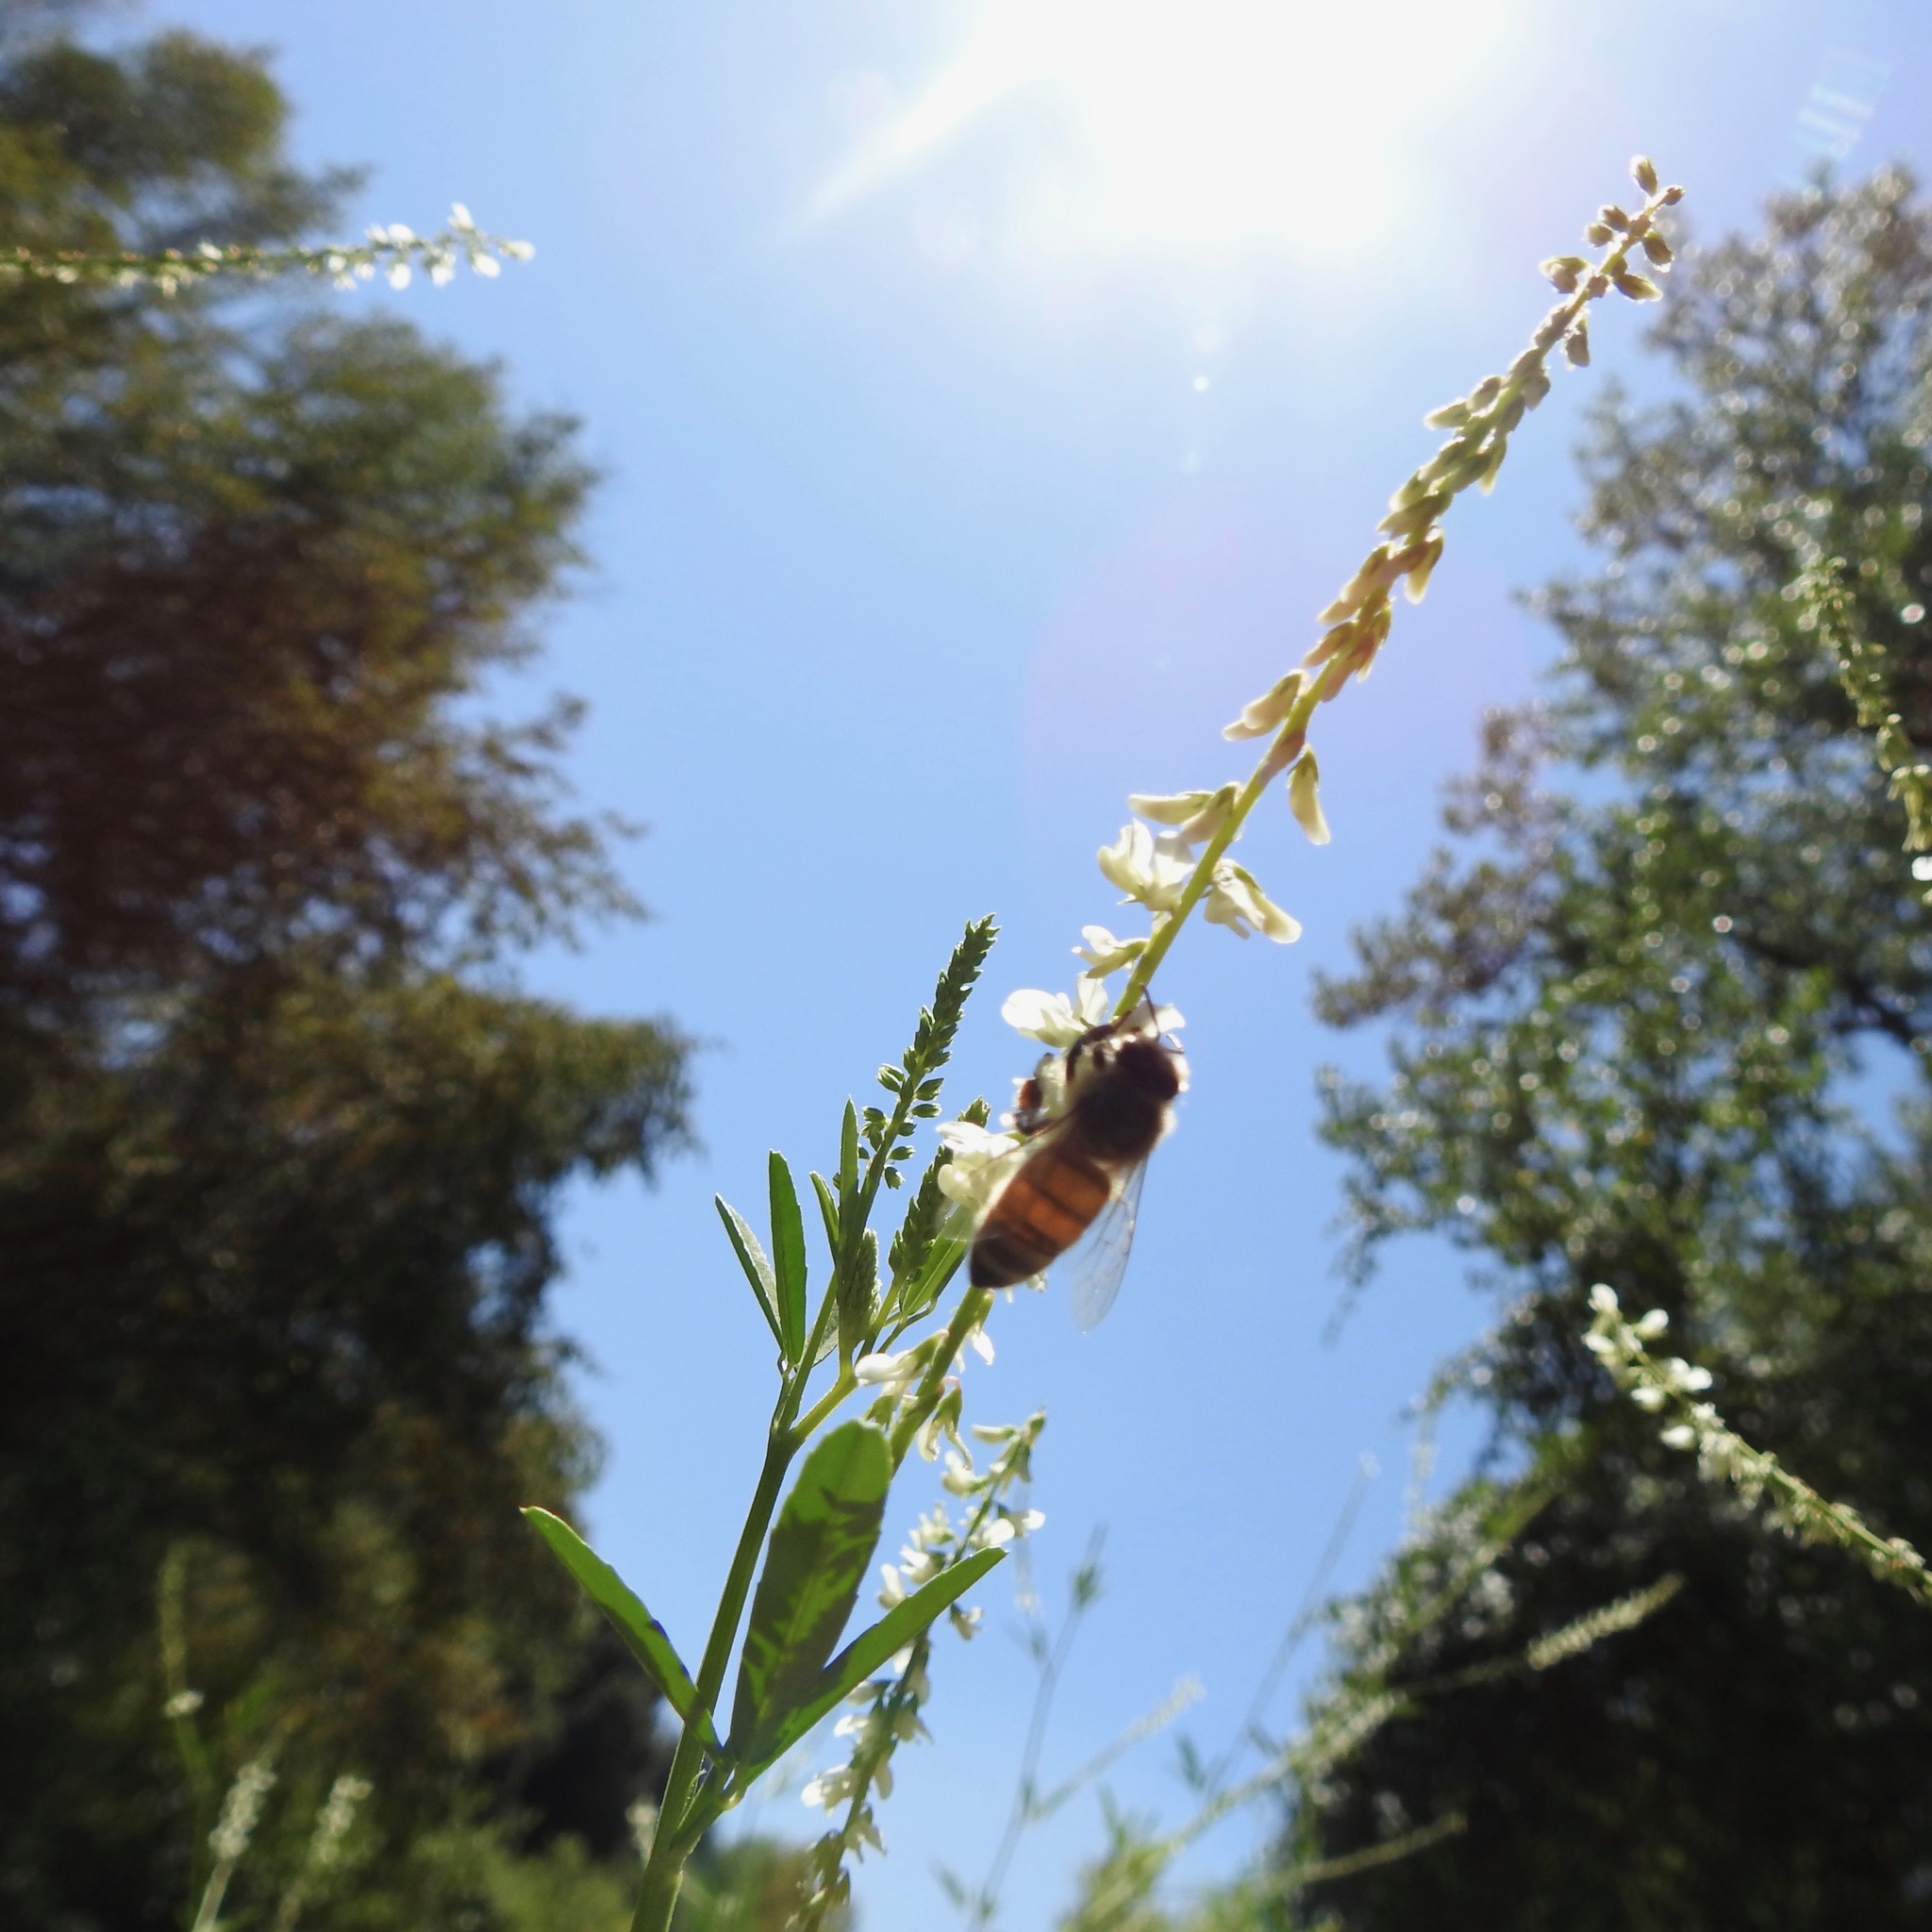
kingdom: Plantae
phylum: Tracheophyta
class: Magnoliopsida
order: Fabales
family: Fabaceae
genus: Melilotus
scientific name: Melilotus albus
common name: White melilot
